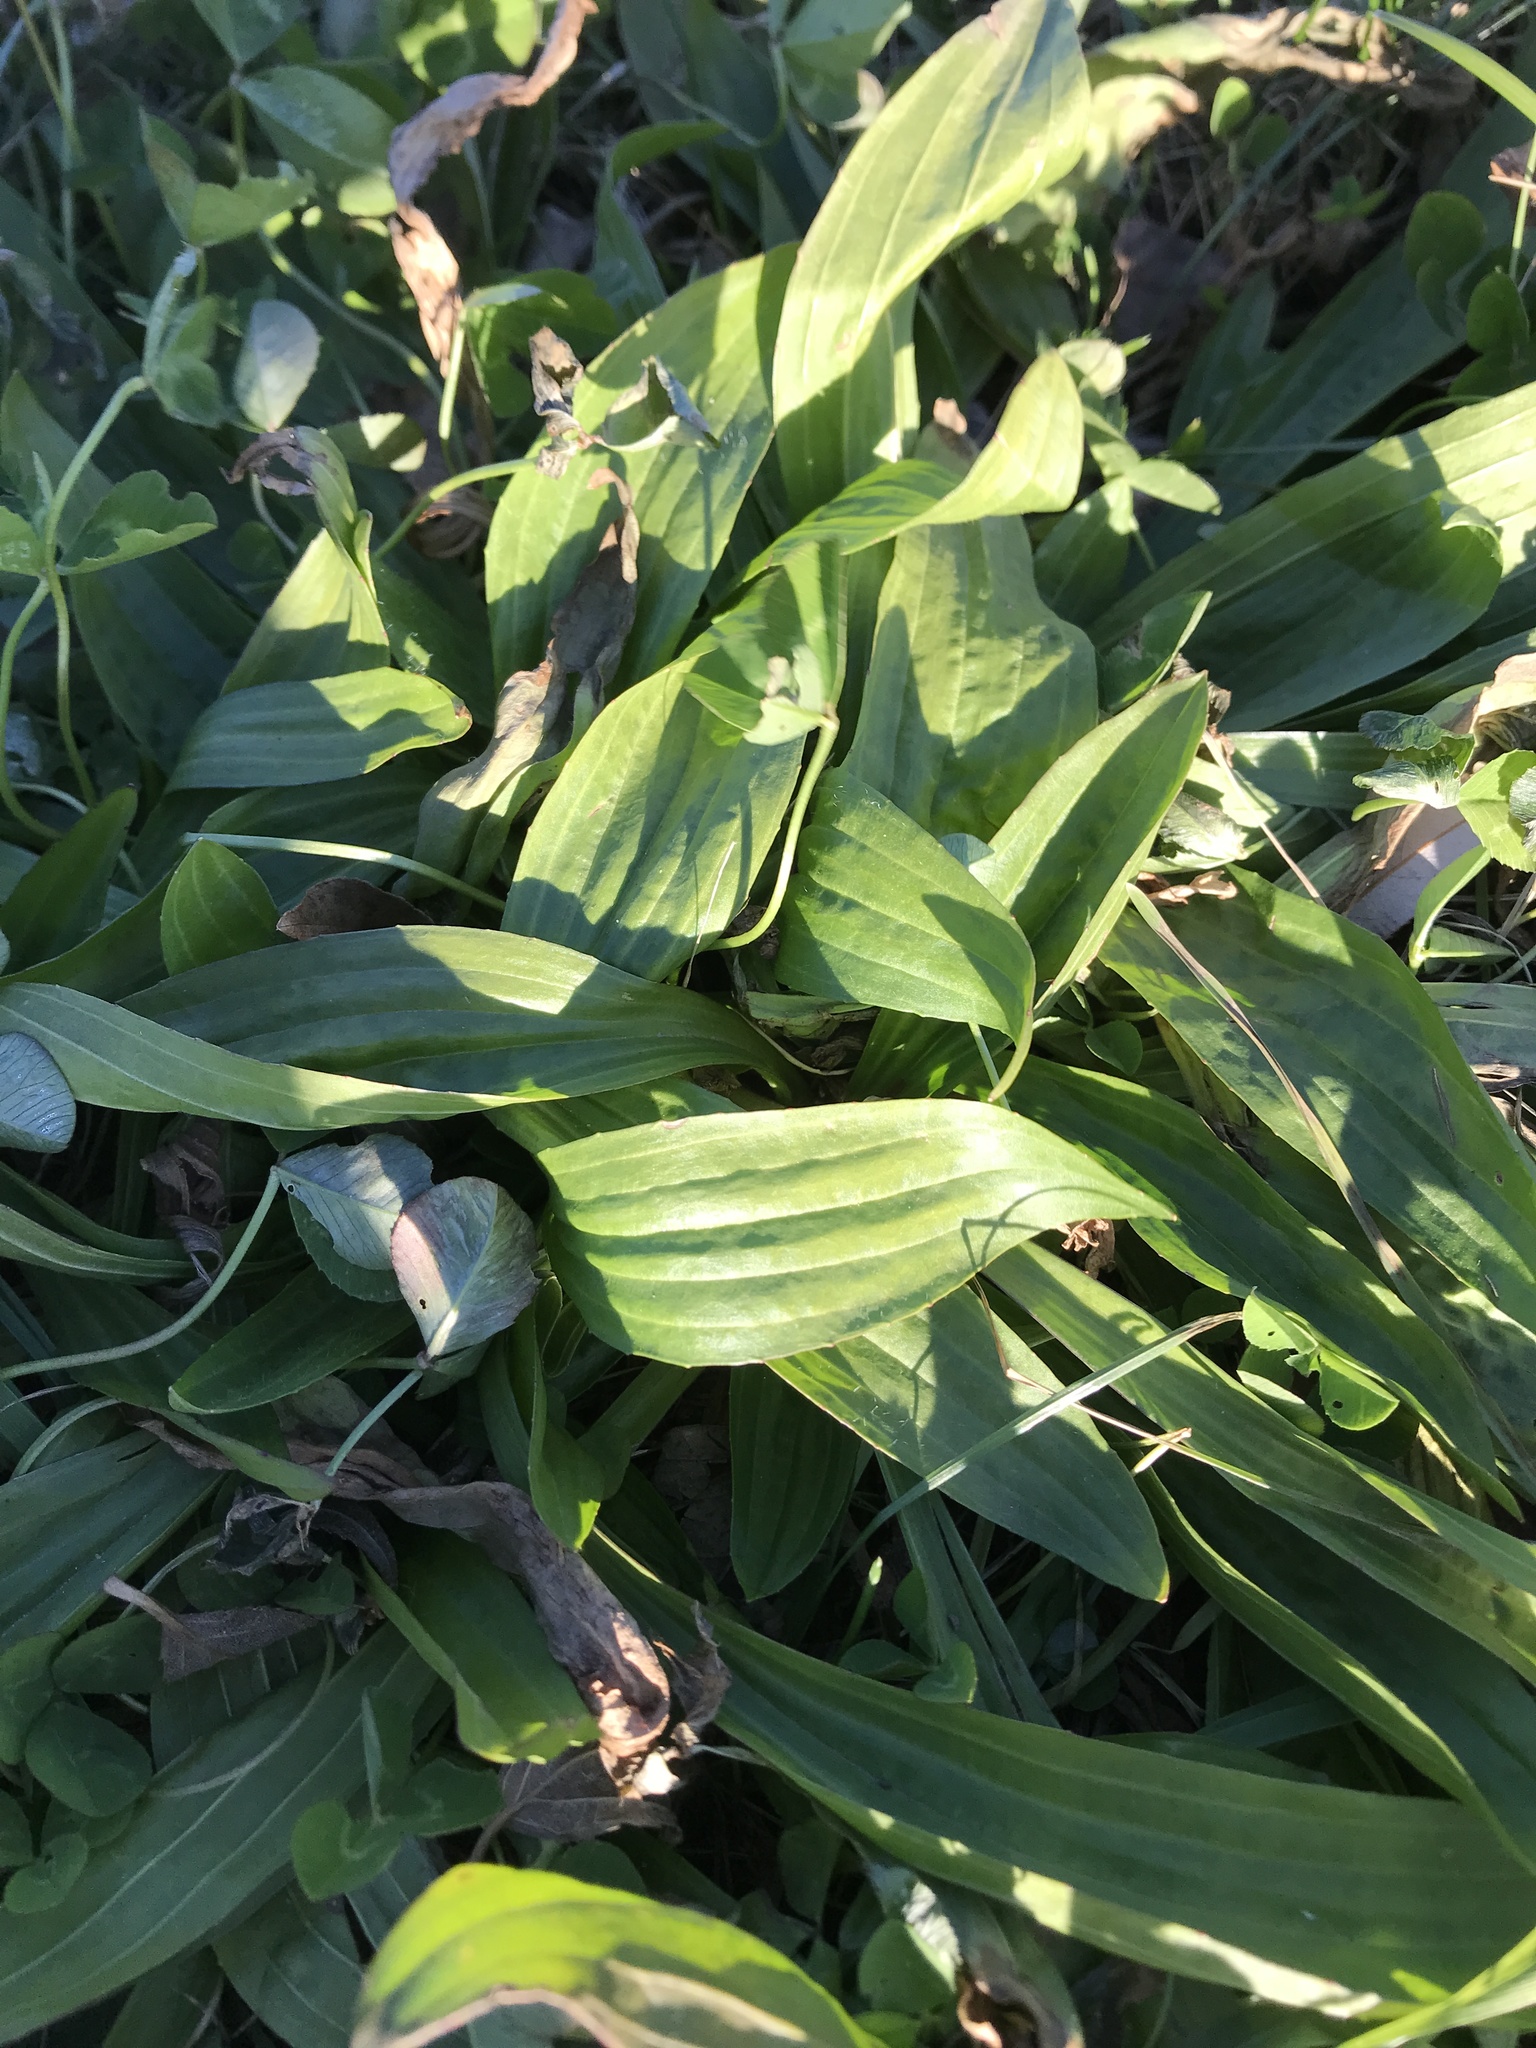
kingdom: Plantae
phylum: Tracheophyta
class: Magnoliopsida
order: Lamiales
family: Plantaginaceae
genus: Plantago
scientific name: Plantago lanceolata
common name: Ribwort plantain
